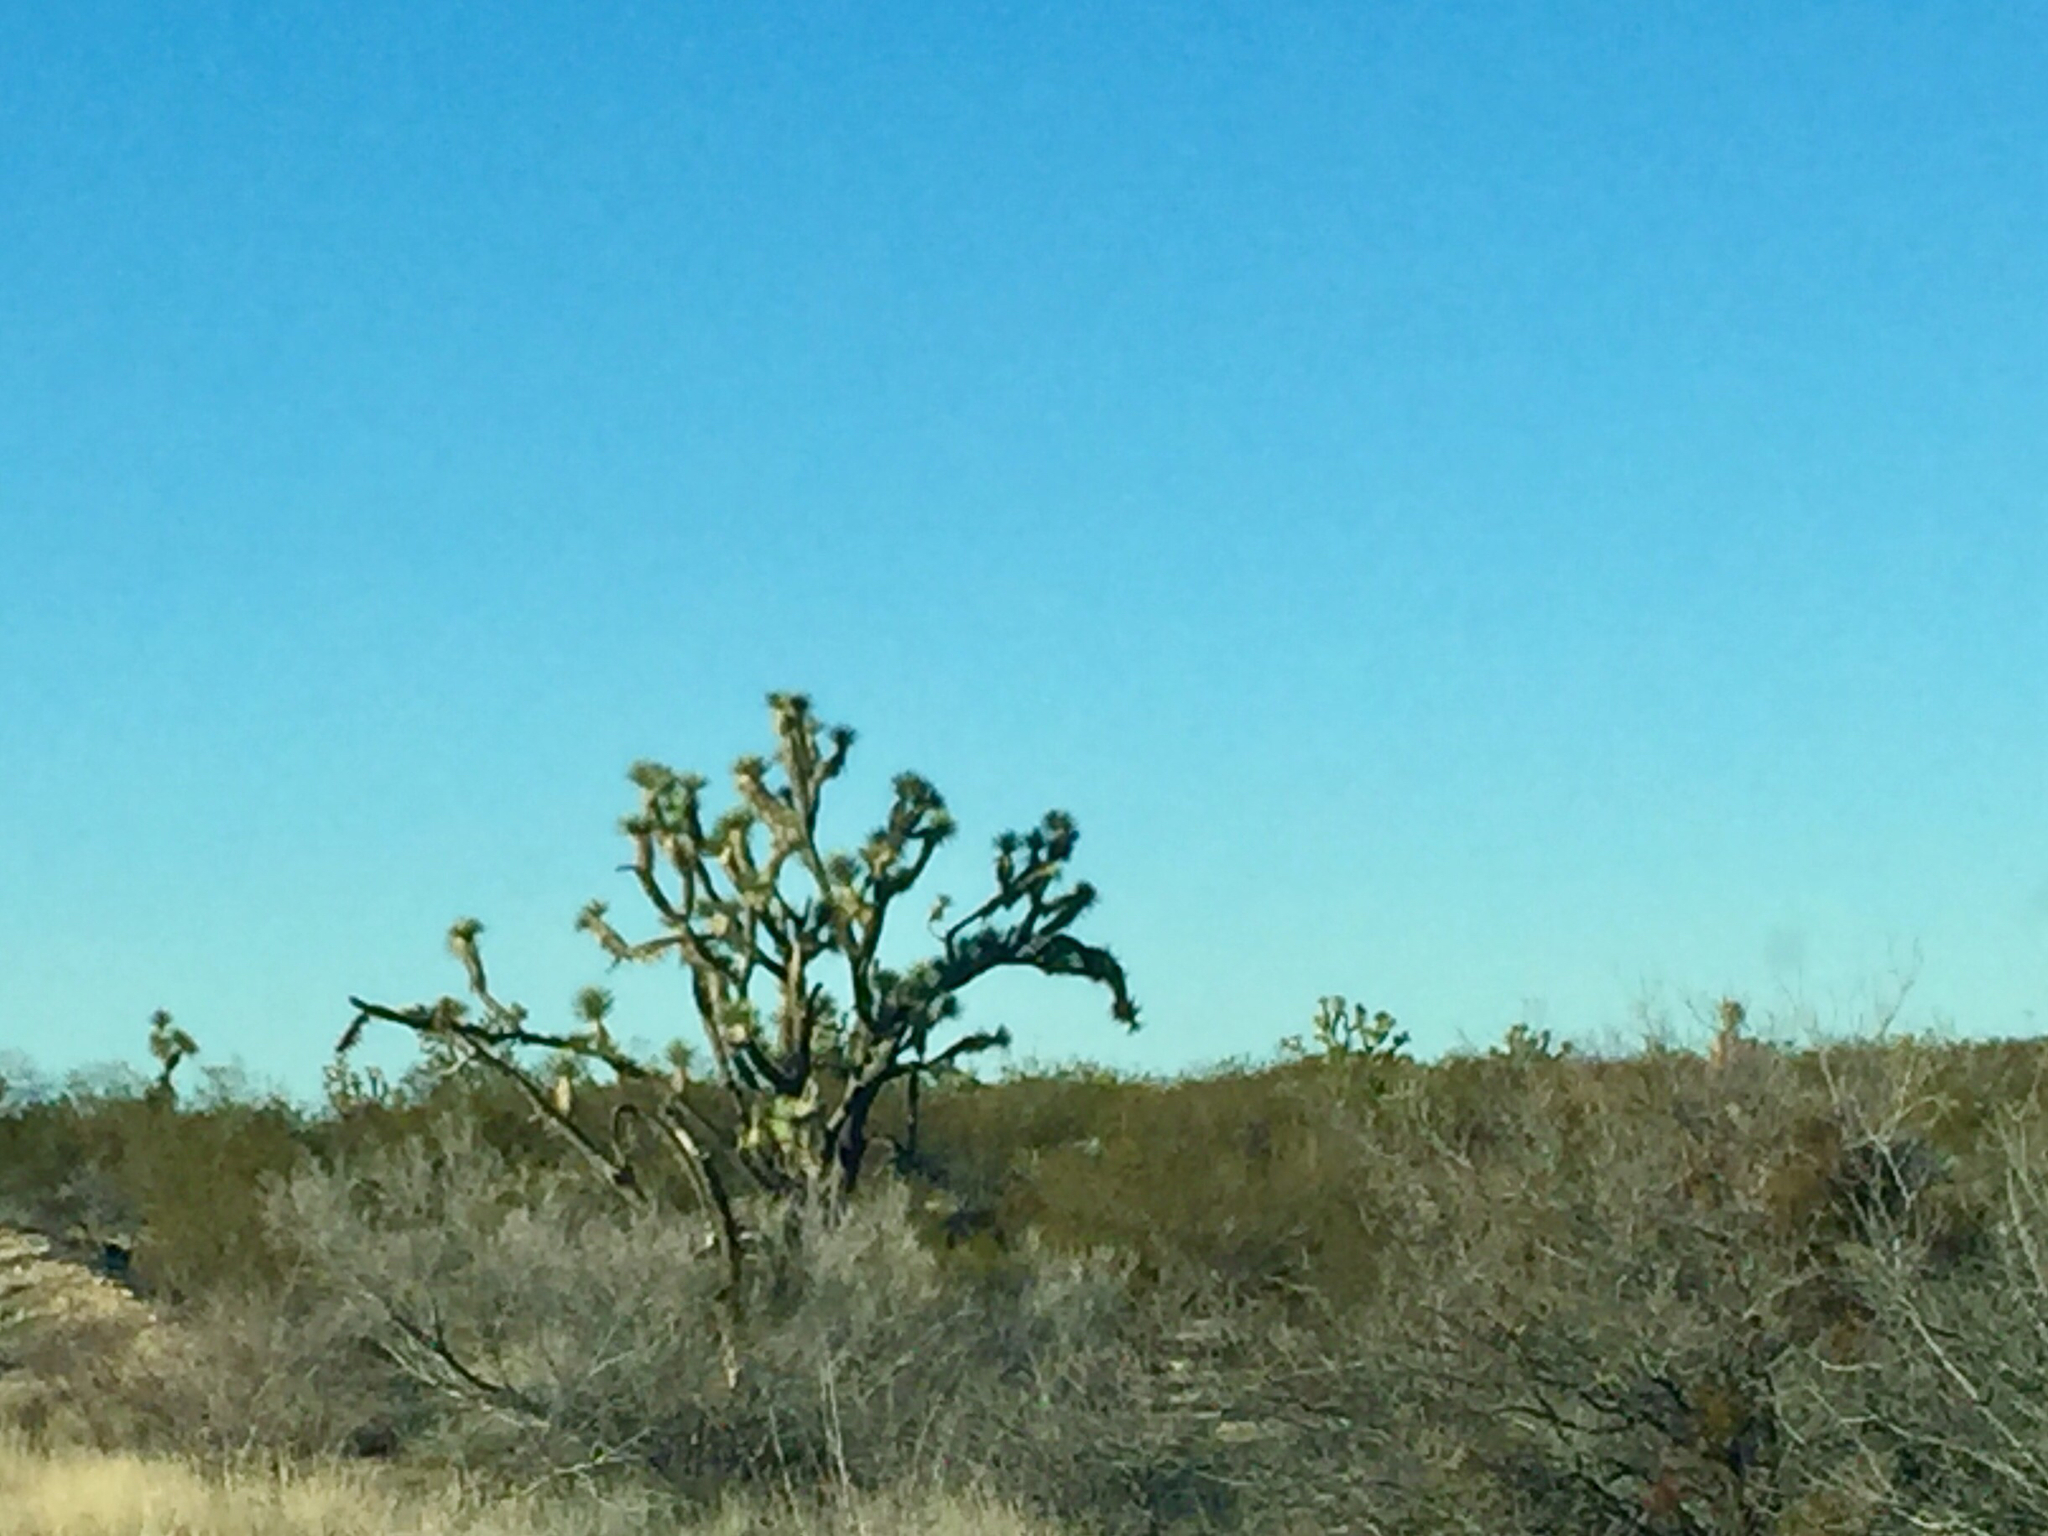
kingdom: Plantae
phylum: Tracheophyta
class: Liliopsida
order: Asparagales
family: Asparagaceae
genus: Yucca
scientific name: Yucca brevifolia
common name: Joshua tree
